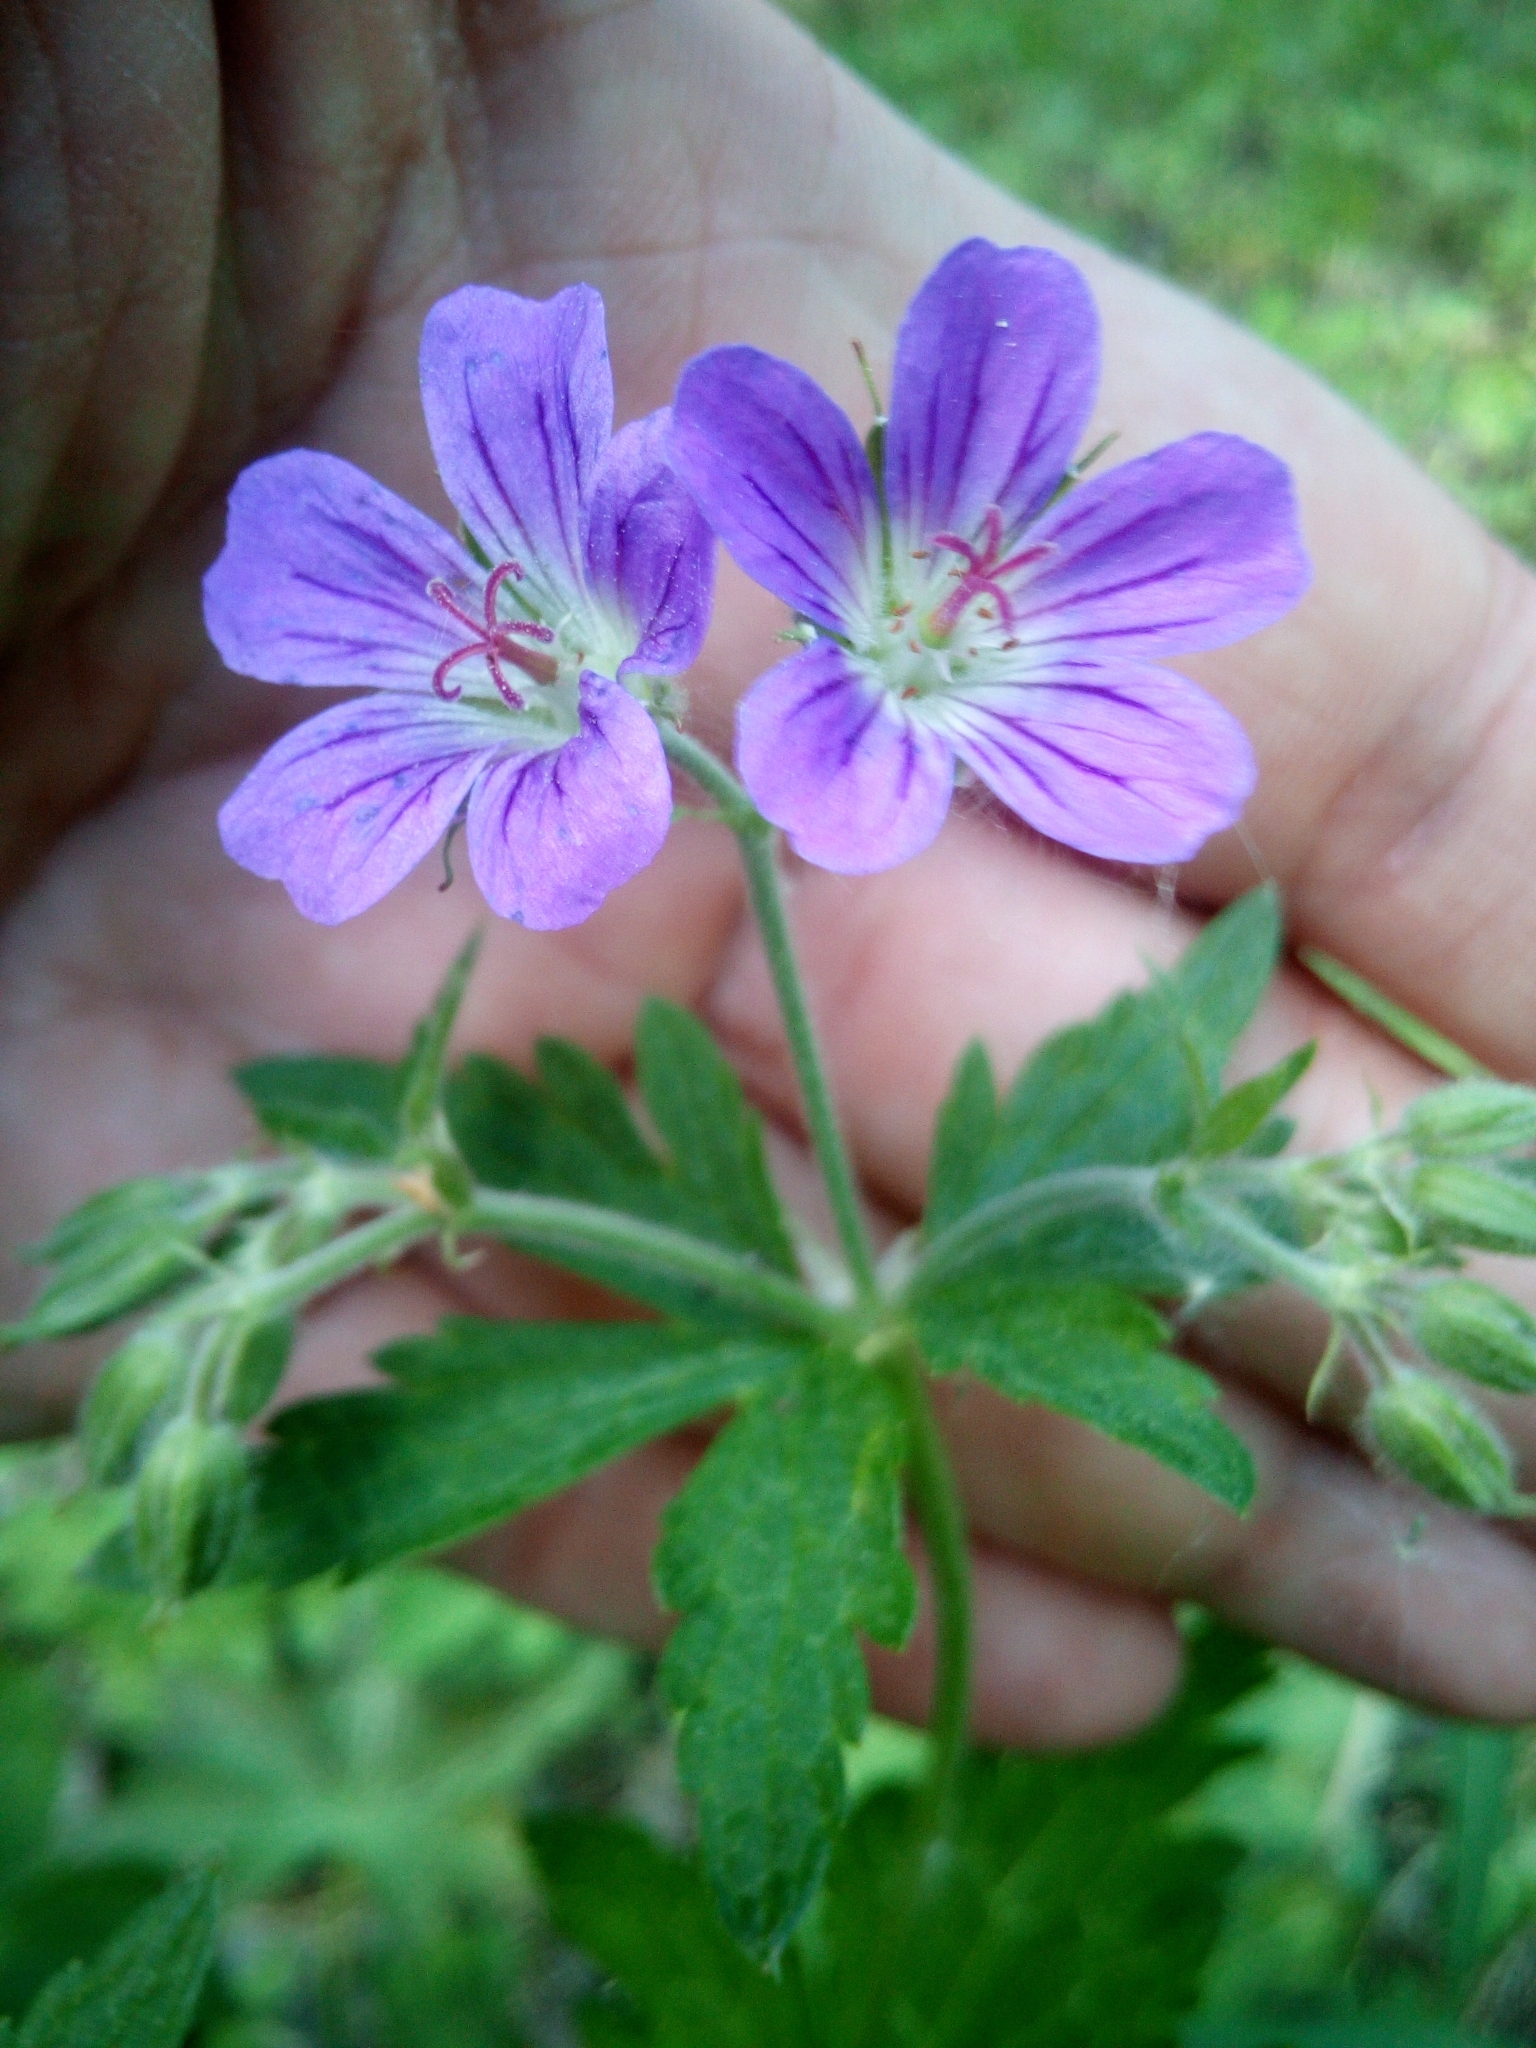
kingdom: Plantae
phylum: Tracheophyta
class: Magnoliopsida
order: Geraniales
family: Geraniaceae
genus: Geranium
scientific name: Geranium sylvaticum
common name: Wood crane's-bill
